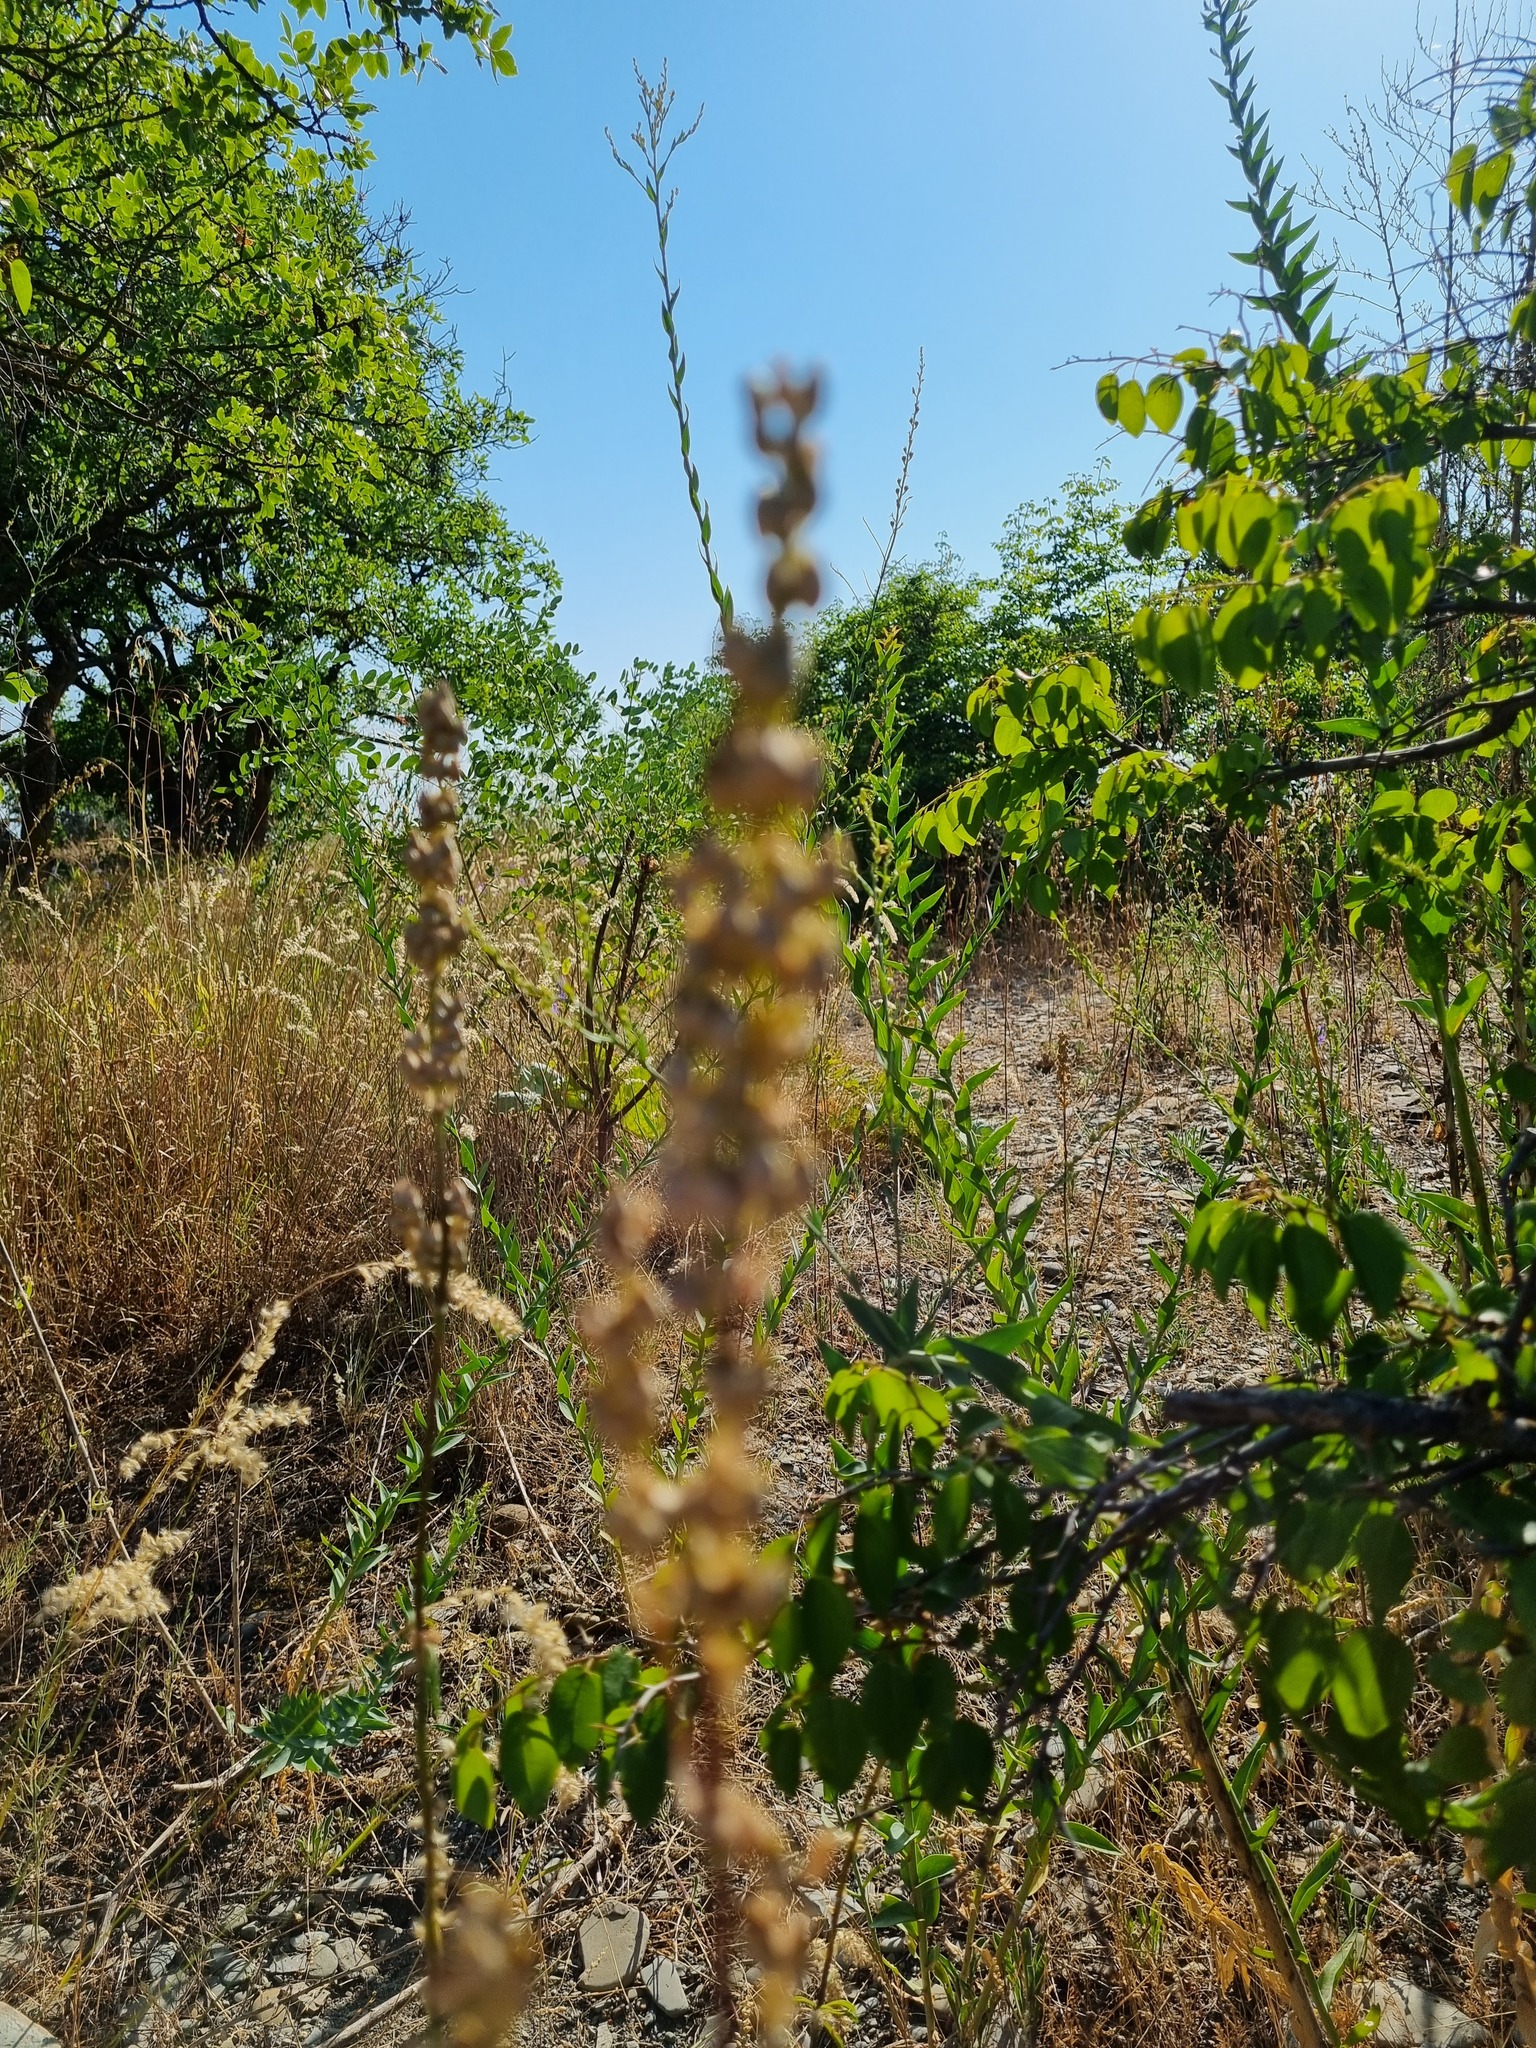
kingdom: Plantae
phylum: Tracheophyta
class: Magnoliopsida
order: Lamiales
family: Plantaginaceae
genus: Linaria
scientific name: Linaria genistifolia
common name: Broomleaf toadflax
